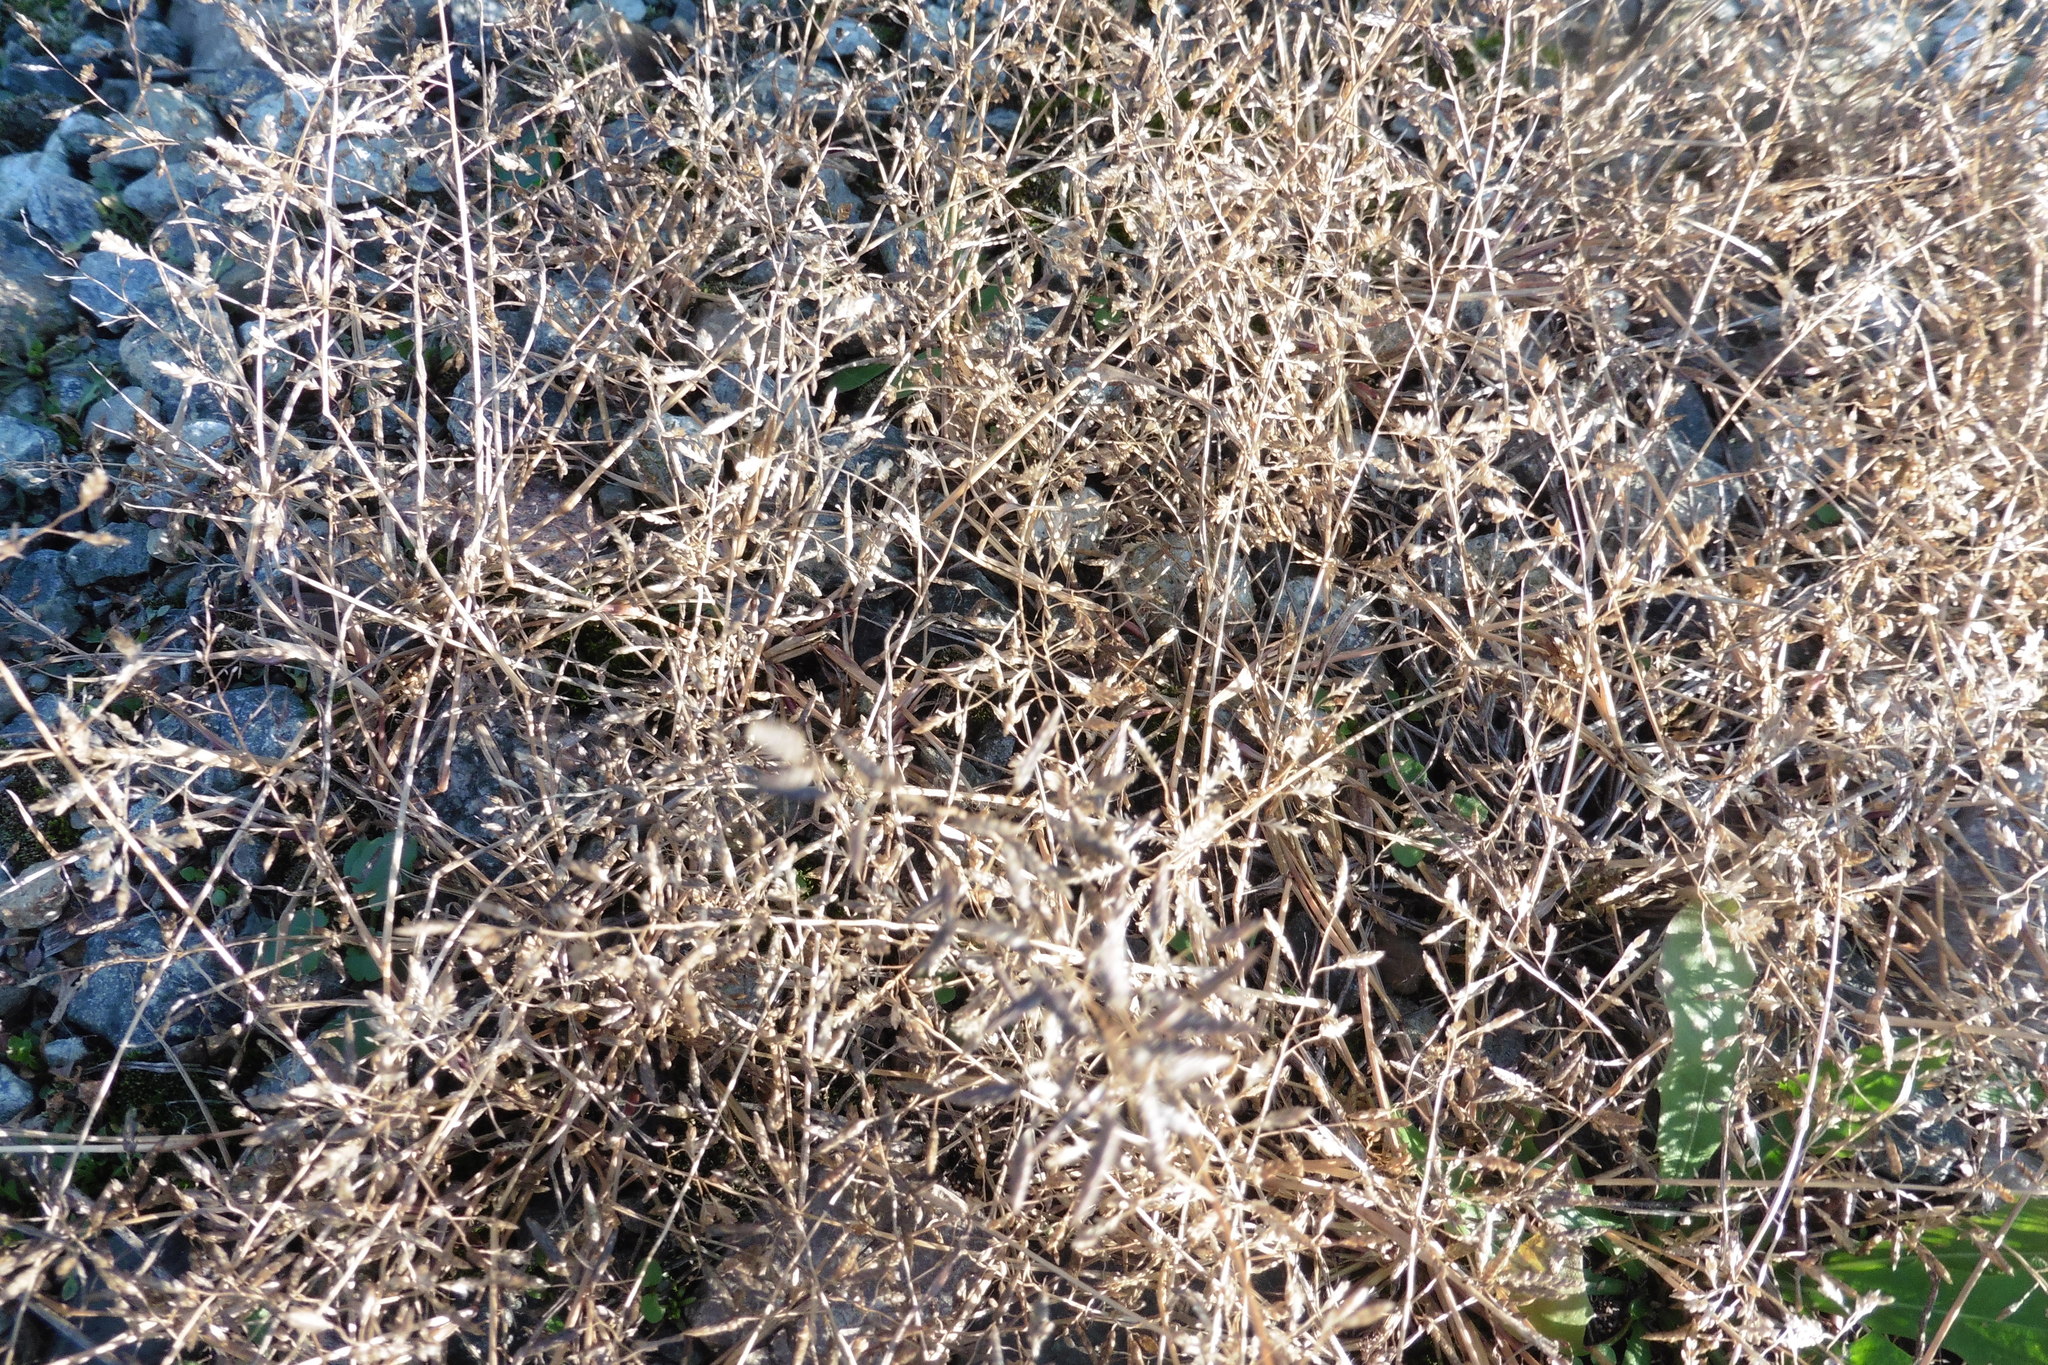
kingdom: Plantae
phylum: Tracheophyta
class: Liliopsida
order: Poales
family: Poaceae
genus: Eragrostis
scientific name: Eragrostis minor
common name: Small love-grass
